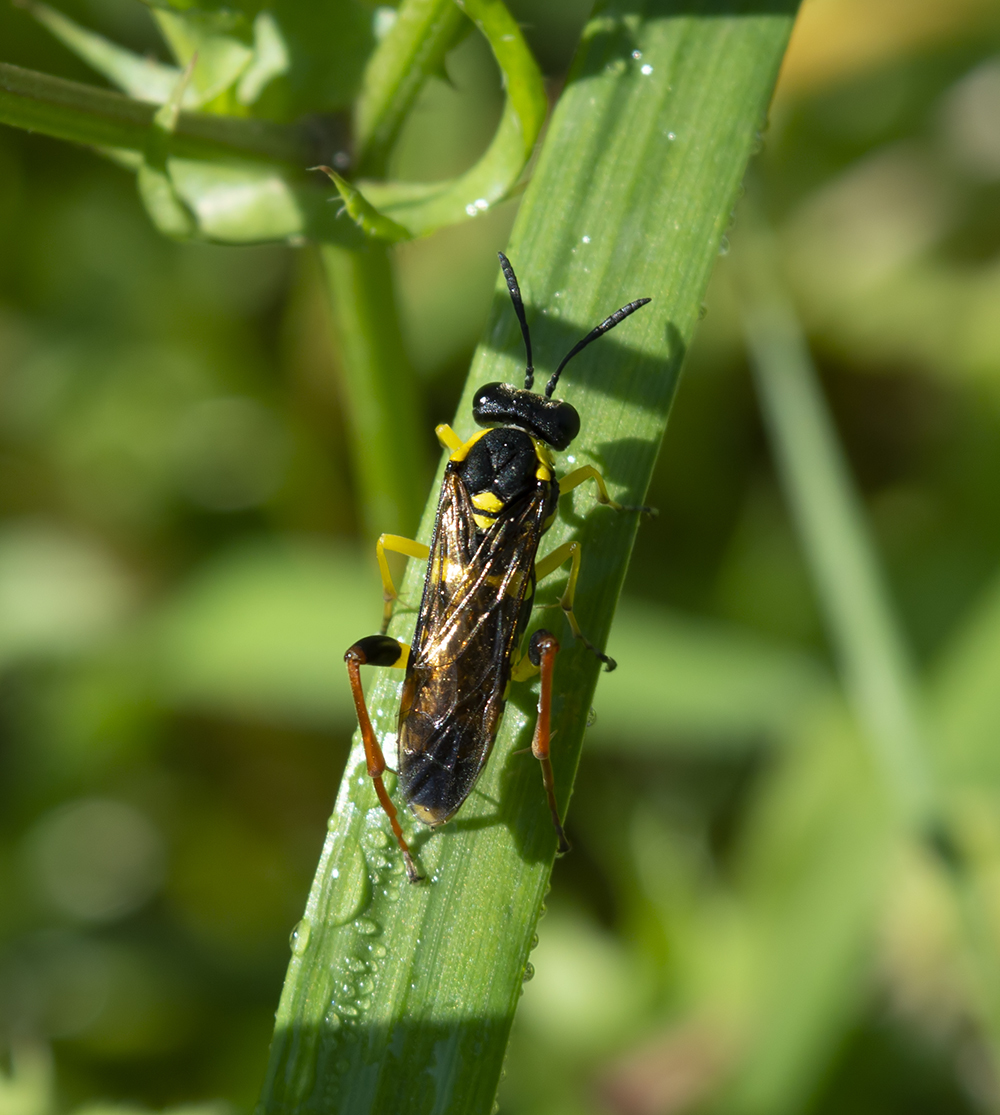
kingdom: Animalia
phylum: Arthropoda
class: Insecta
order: Hymenoptera
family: Tenthredinidae
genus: Macrophya
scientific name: Macrophya postica
